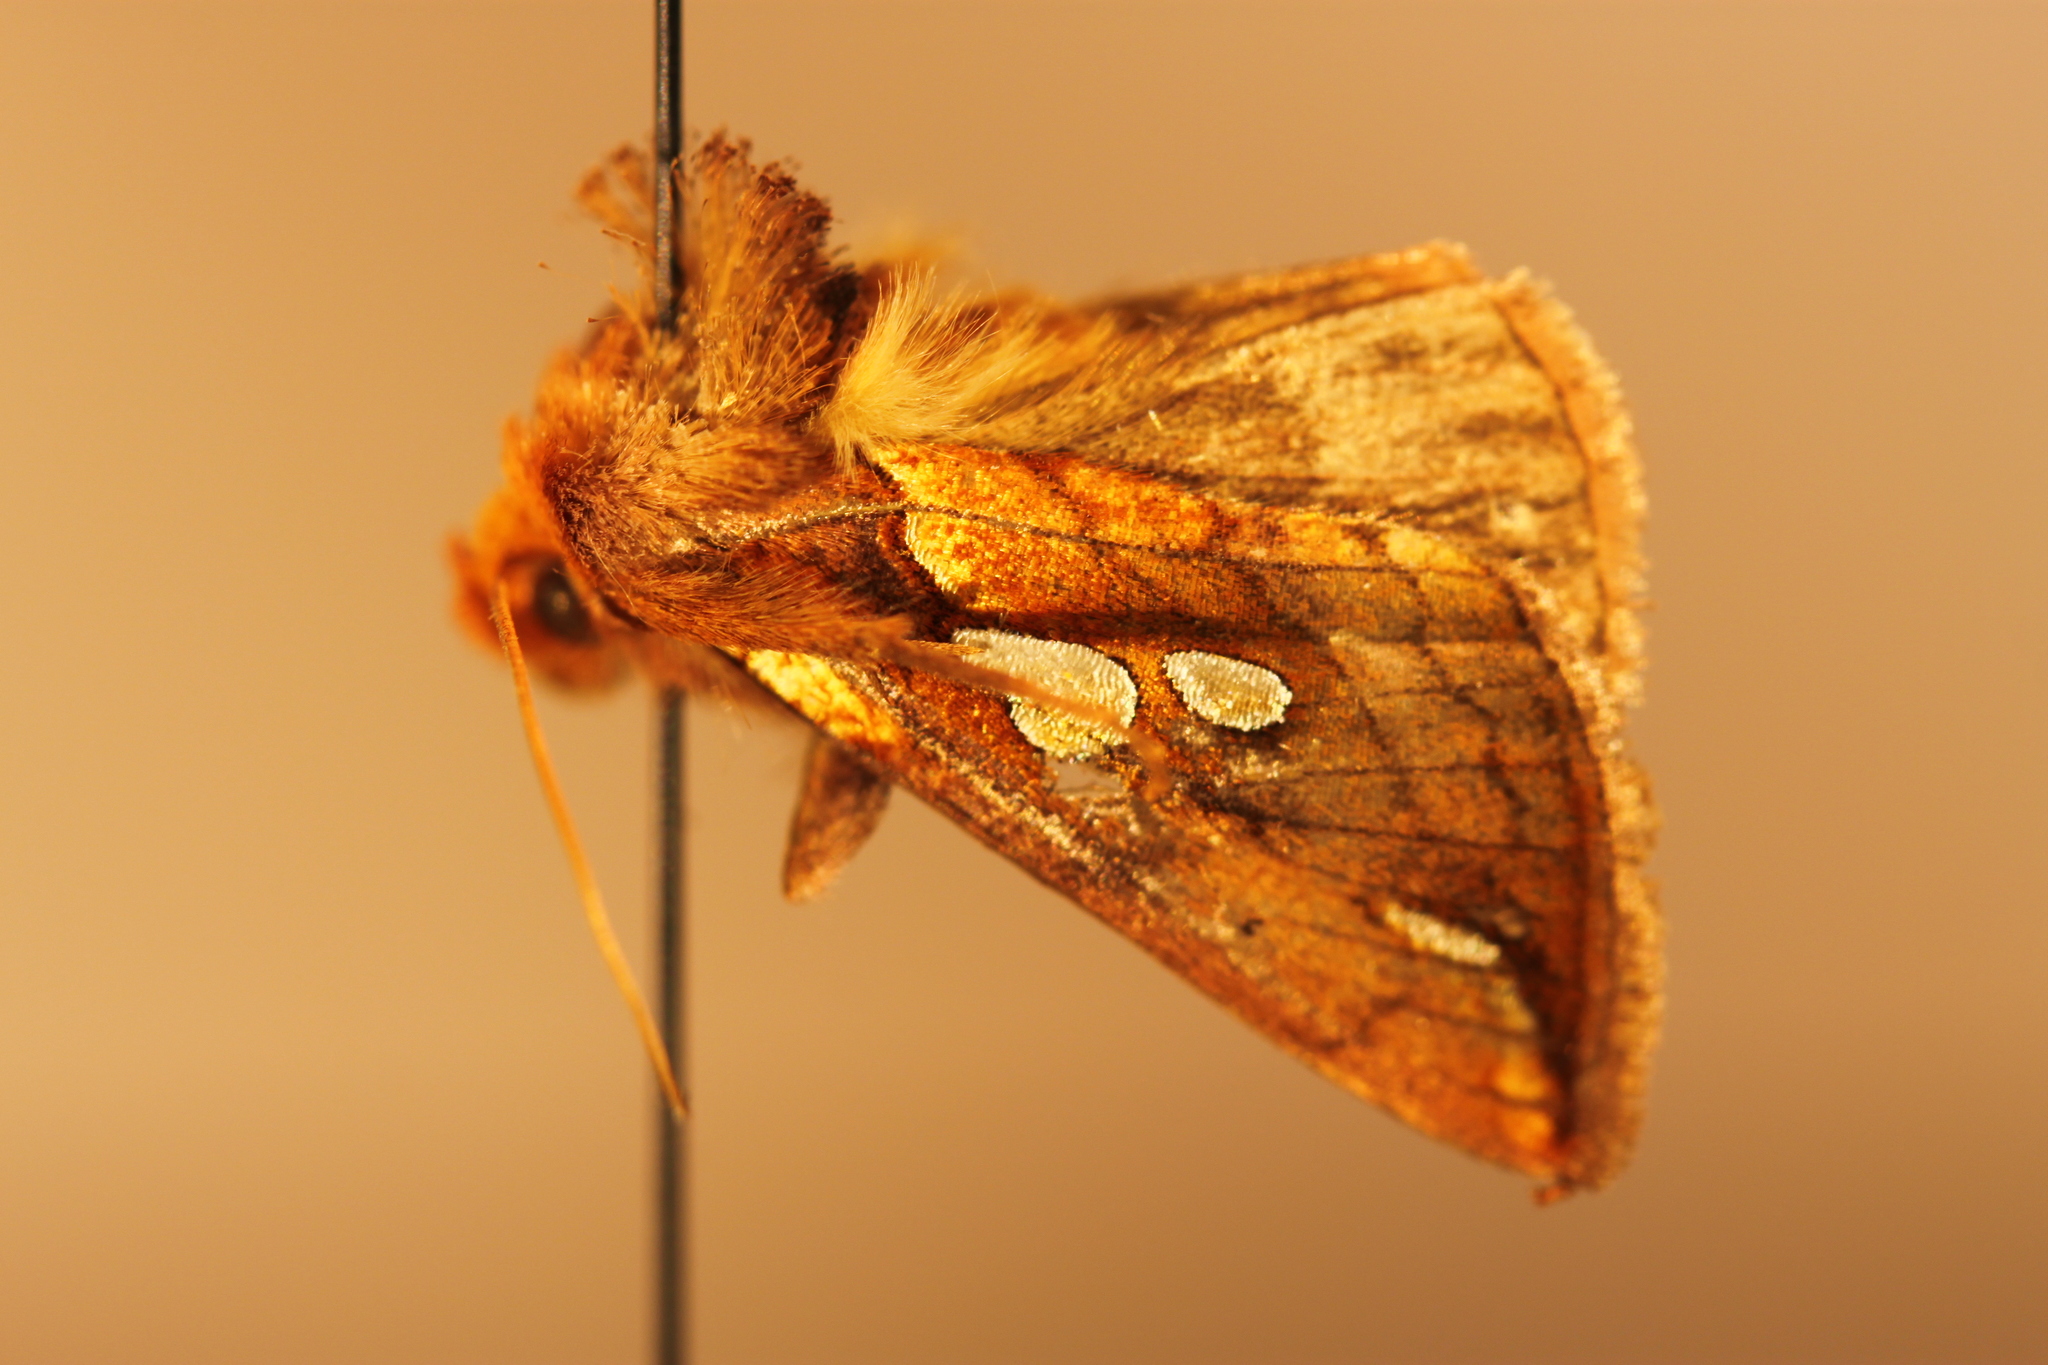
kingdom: Animalia
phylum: Arthropoda
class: Insecta
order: Lepidoptera
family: Noctuidae
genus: Plusia
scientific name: Plusia magnimacula
